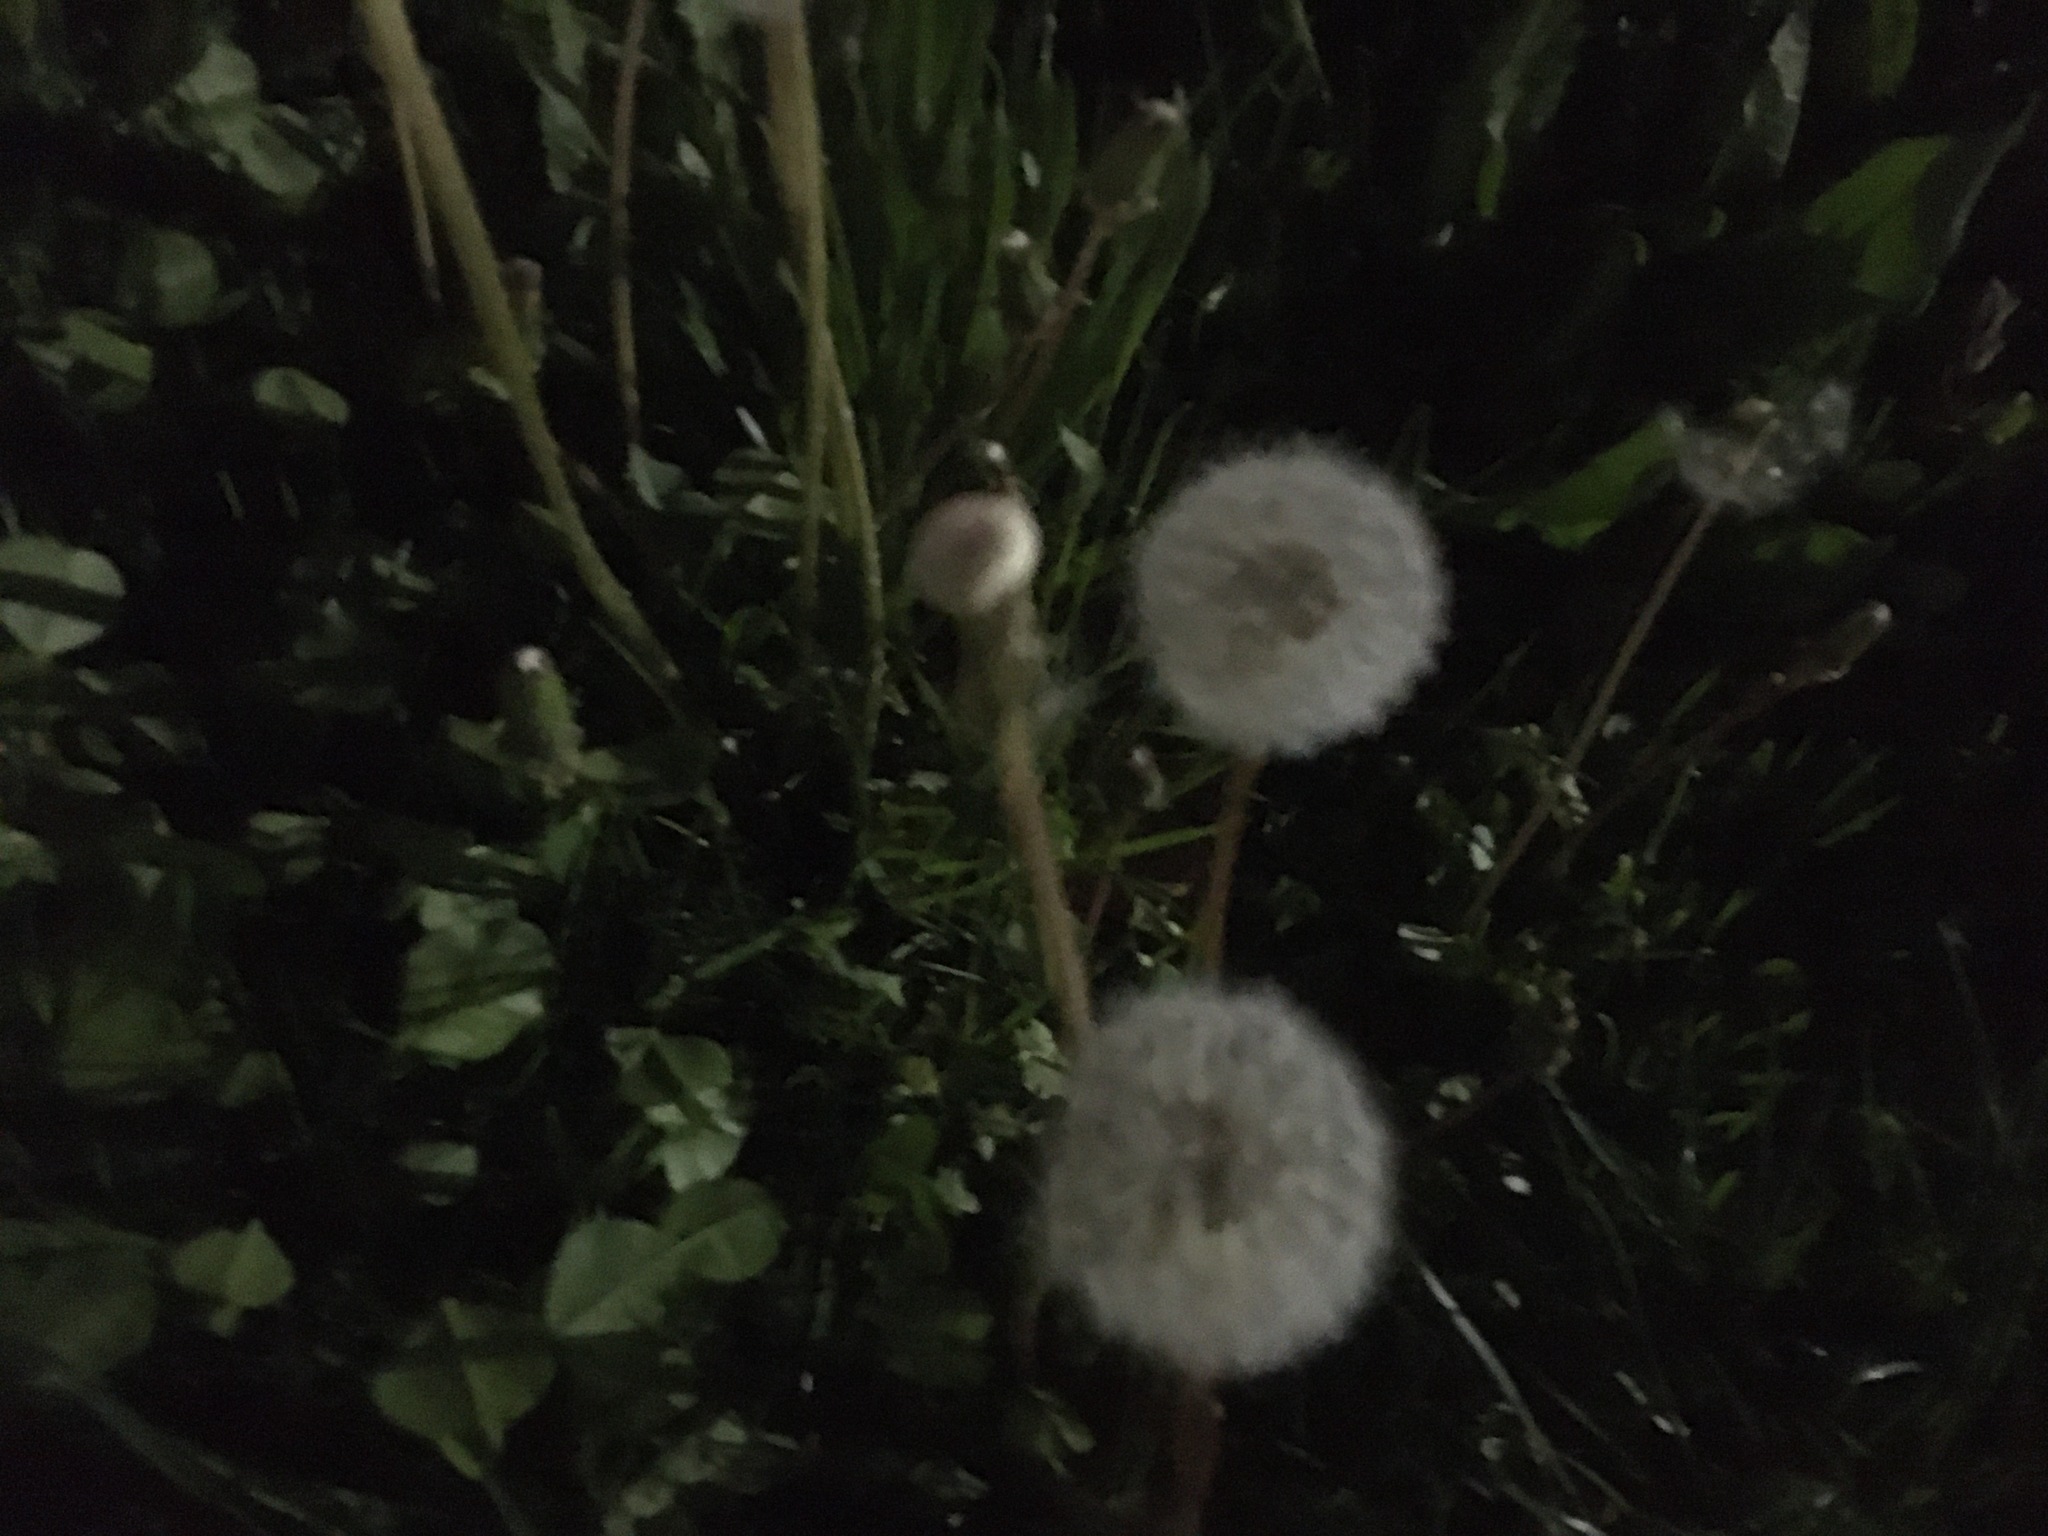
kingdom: Plantae
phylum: Tracheophyta
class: Magnoliopsida
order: Asterales
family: Asteraceae
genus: Taraxacum
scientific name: Taraxacum officinale
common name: Common dandelion
